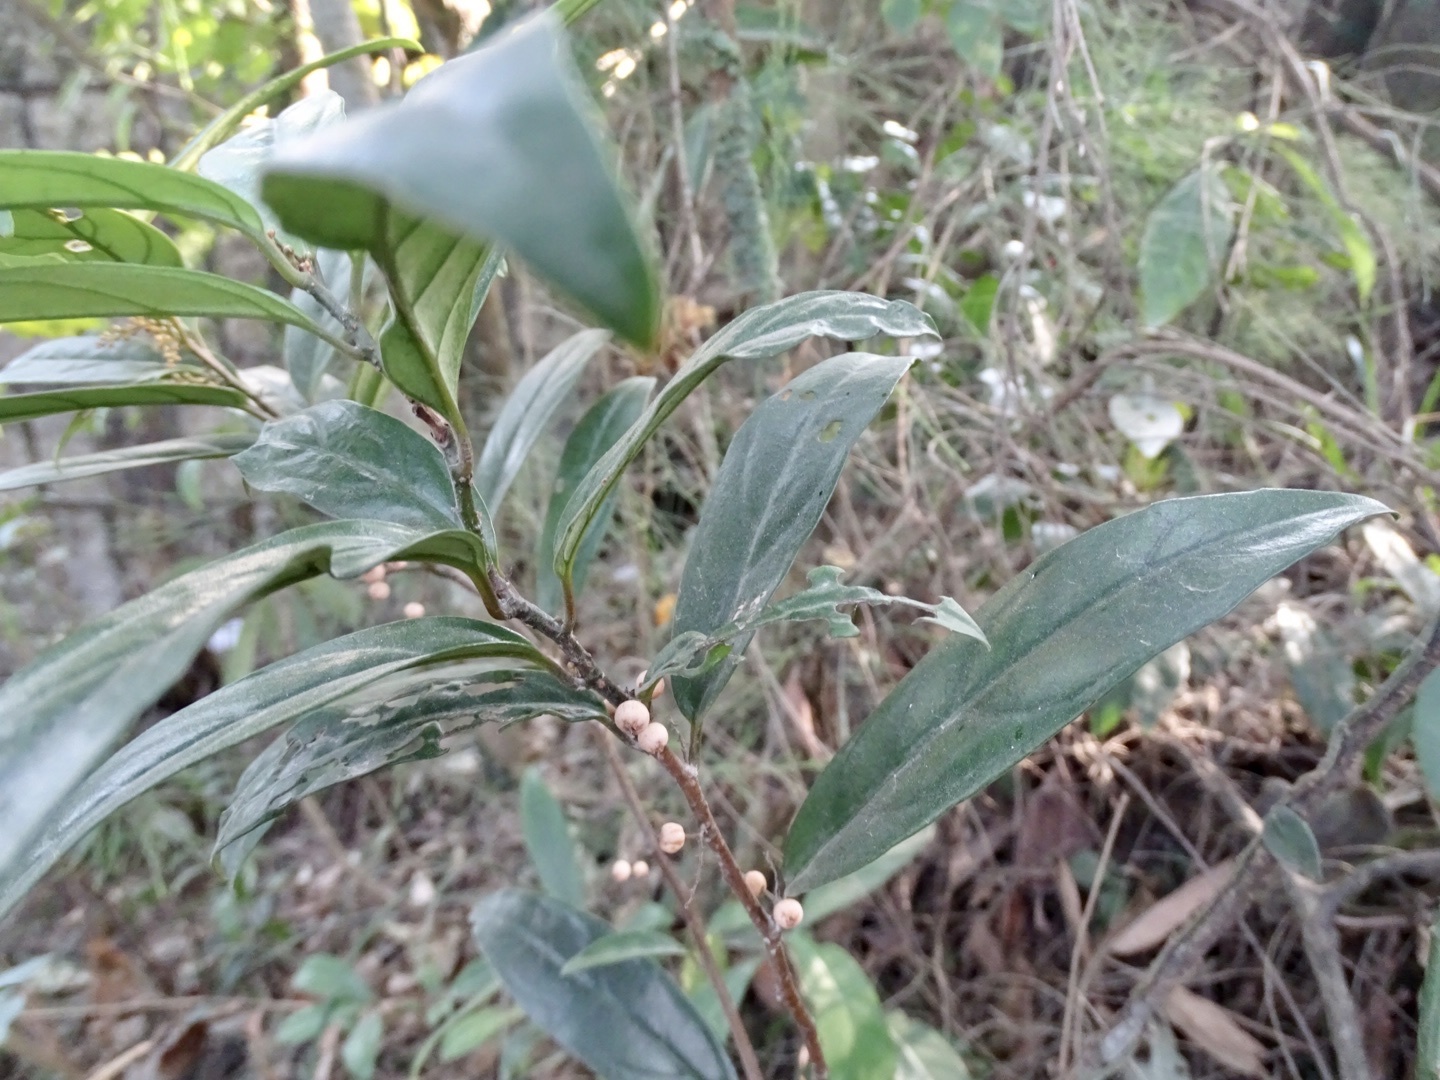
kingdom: Plantae
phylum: Tracheophyta
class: Magnoliopsida
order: Ericales
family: Primulaceae
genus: Maesa
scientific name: Maesa japonica
